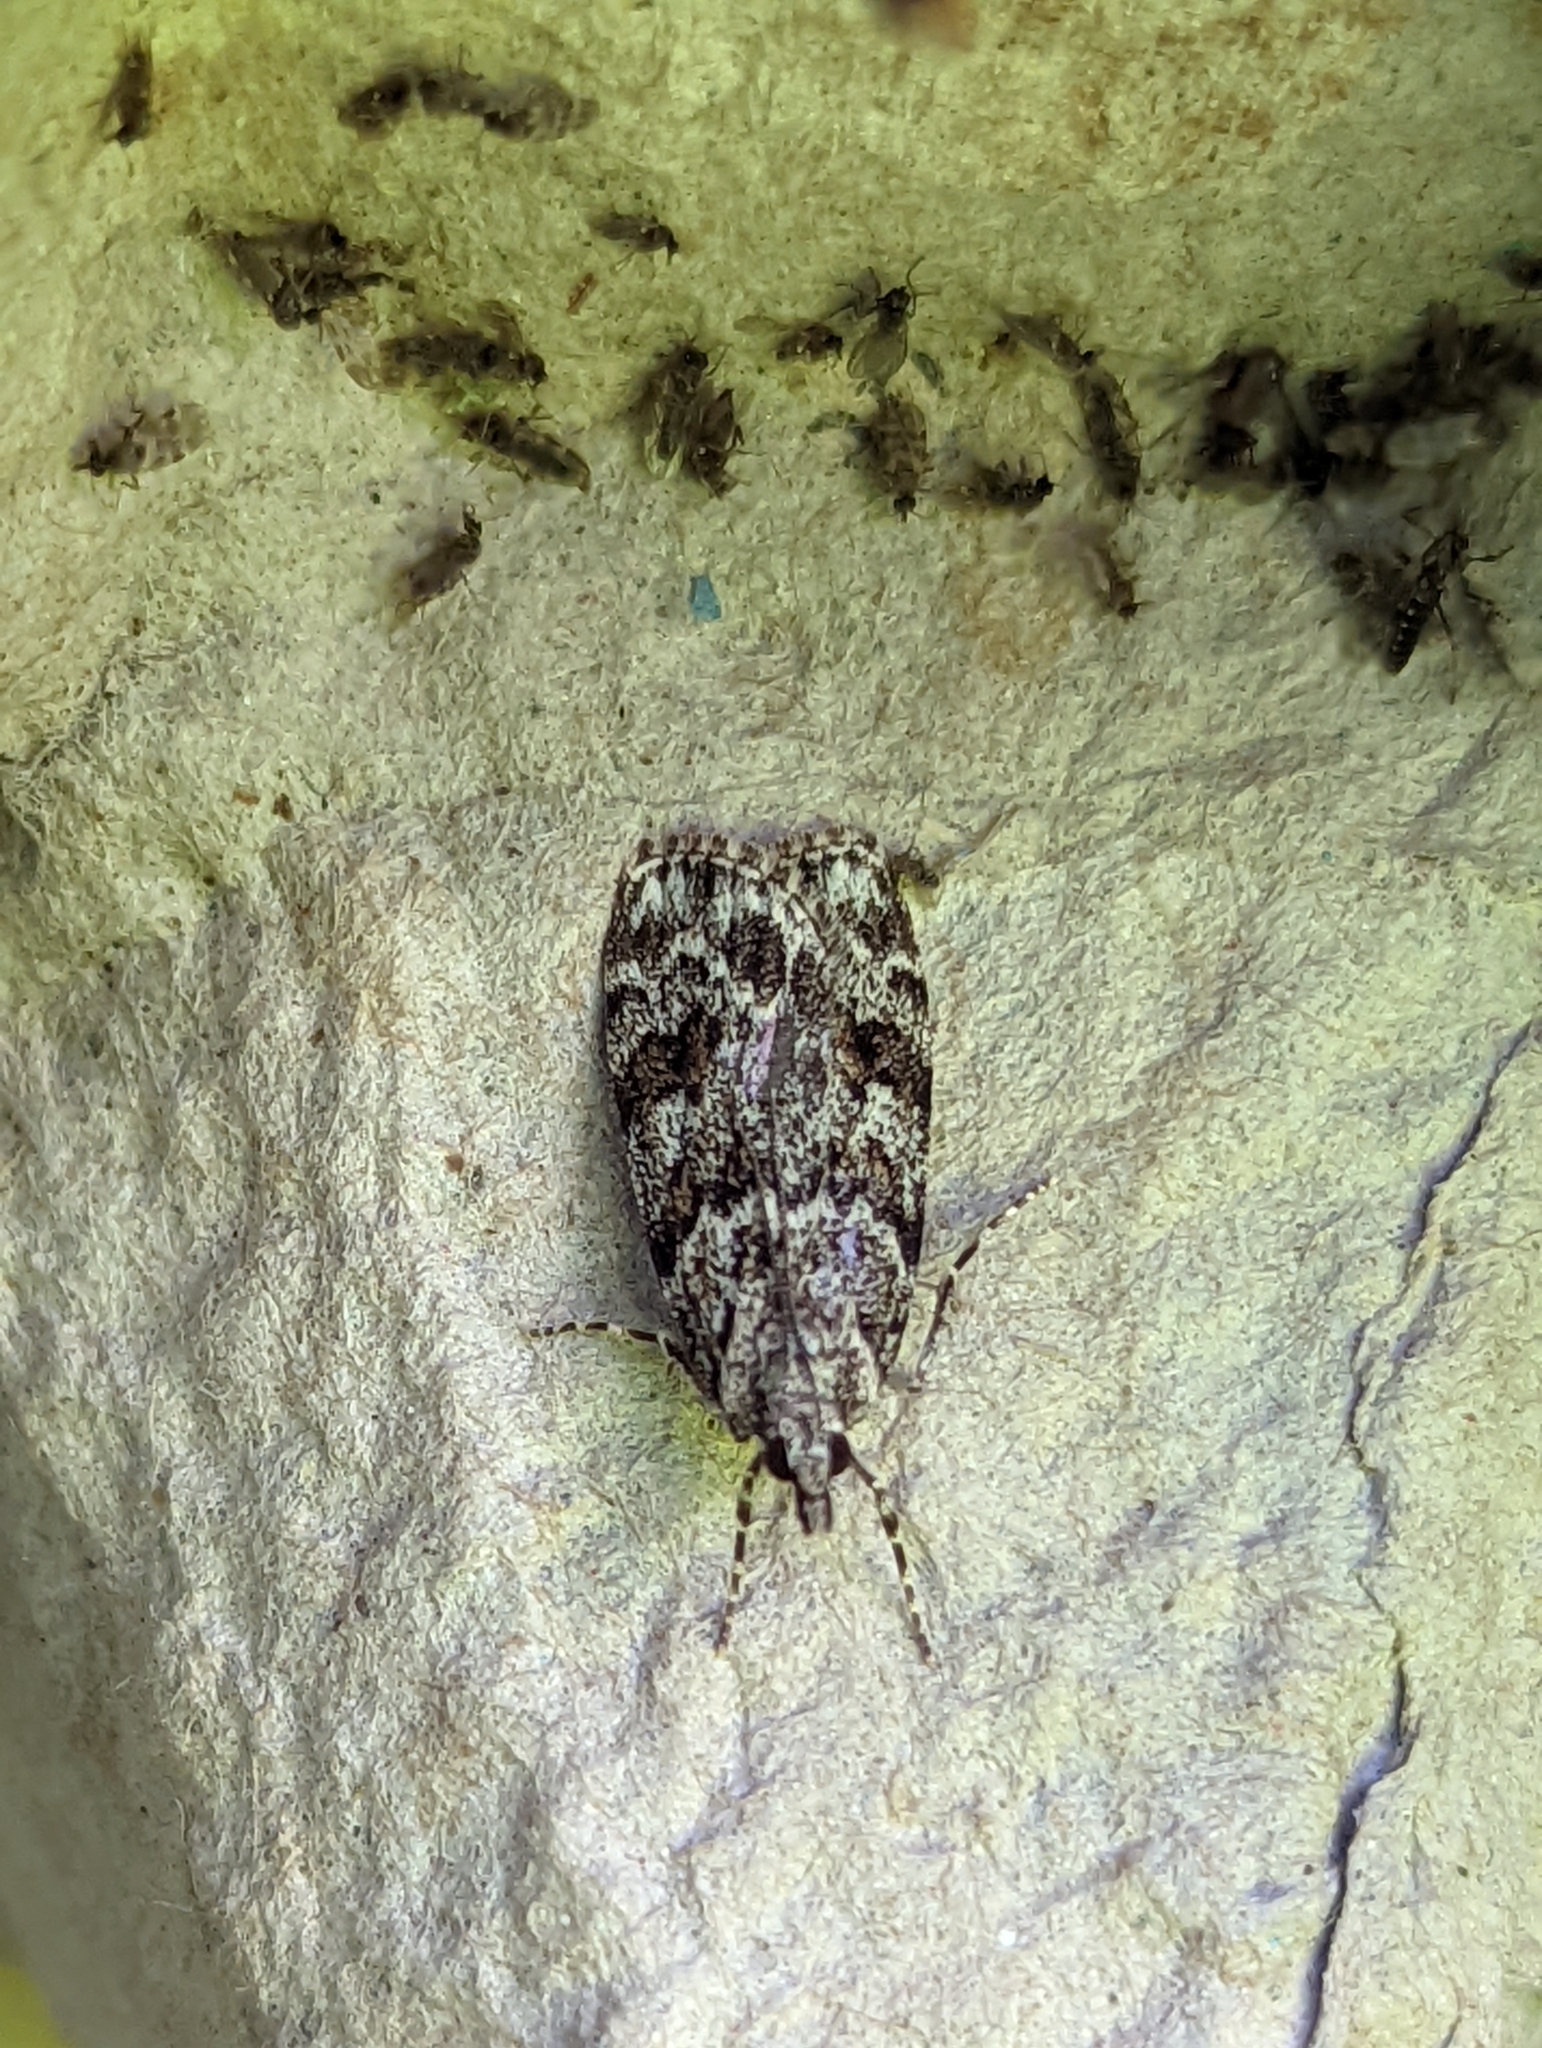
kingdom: Animalia
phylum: Arthropoda
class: Insecta
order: Lepidoptera
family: Crambidae
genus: Eudonia
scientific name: Eudonia delunella
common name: Pied grey
